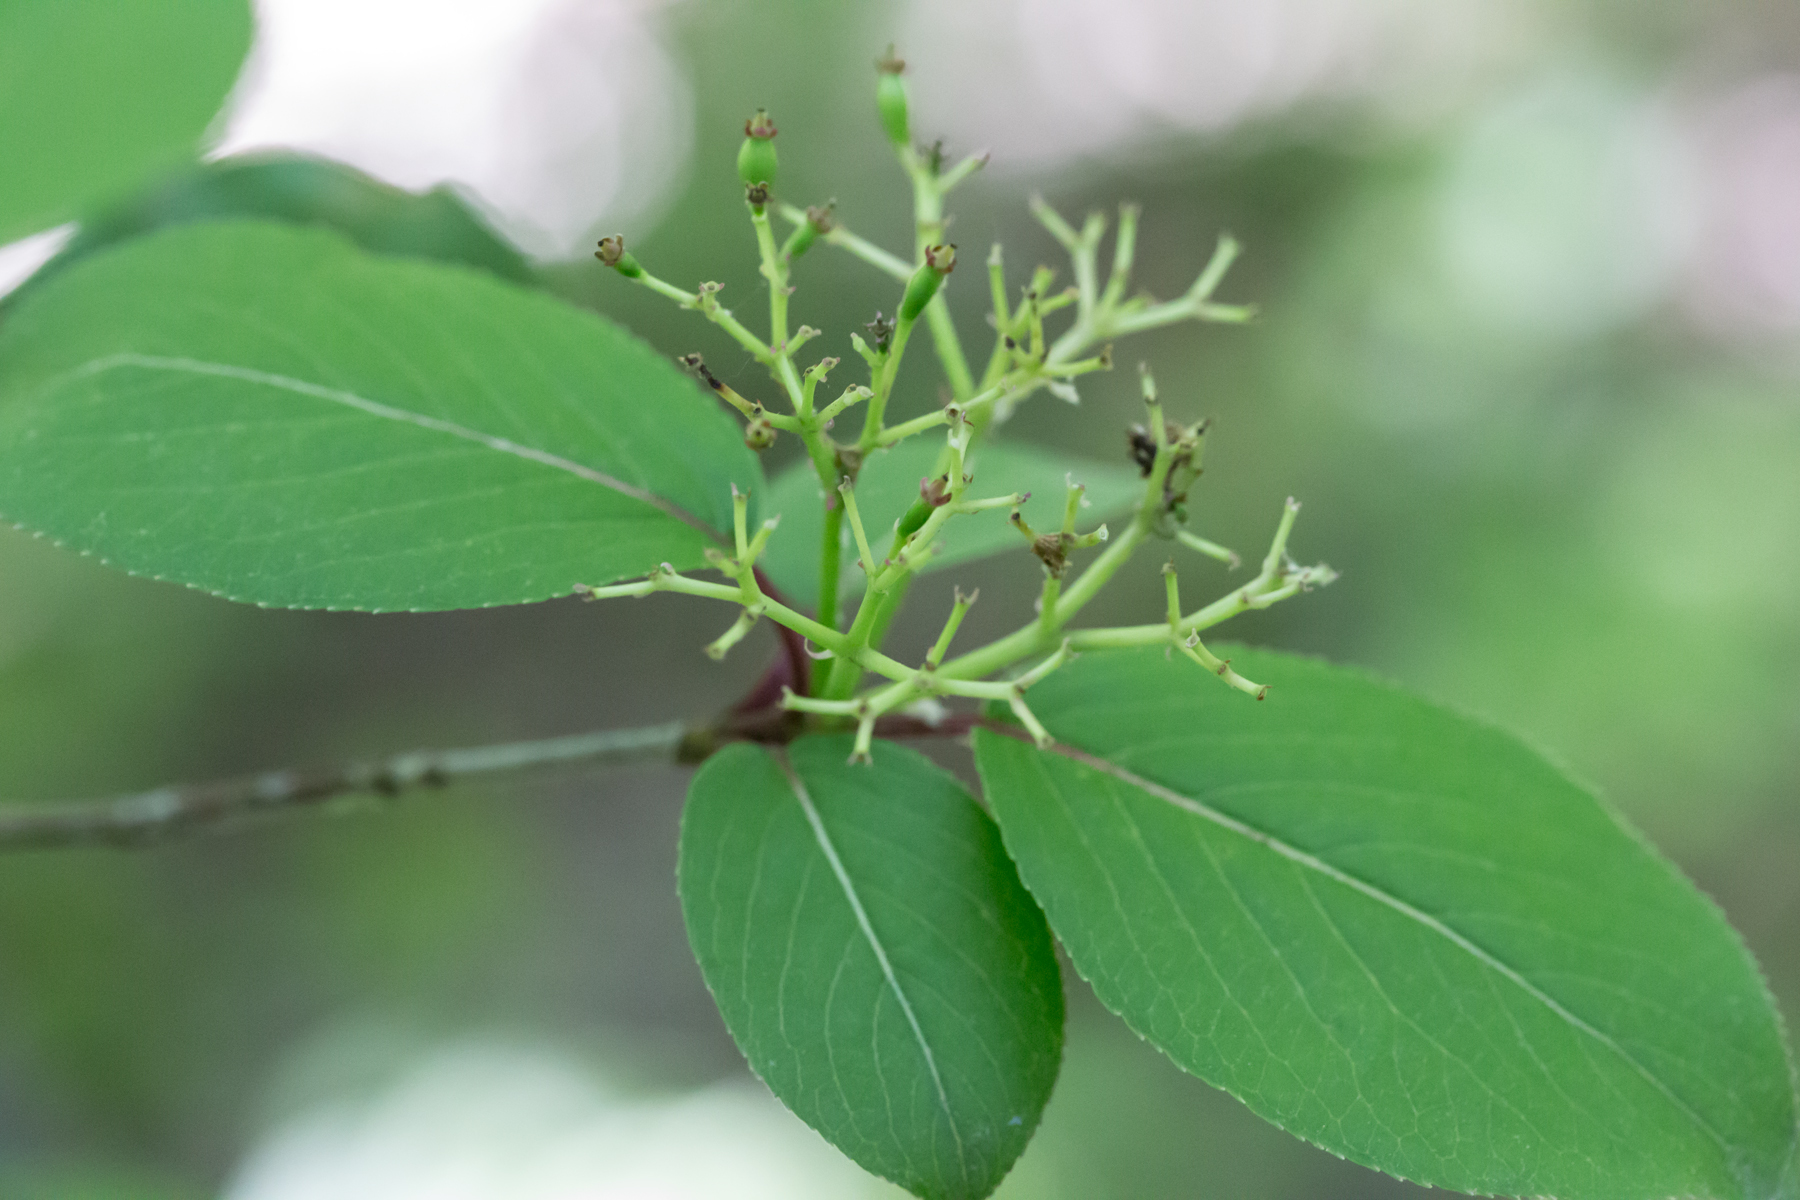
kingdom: Plantae
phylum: Tracheophyta
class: Magnoliopsida
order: Dipsacales
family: Viburnaceae
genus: Viburnum
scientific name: Viburnum prunifolium
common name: Black haw
